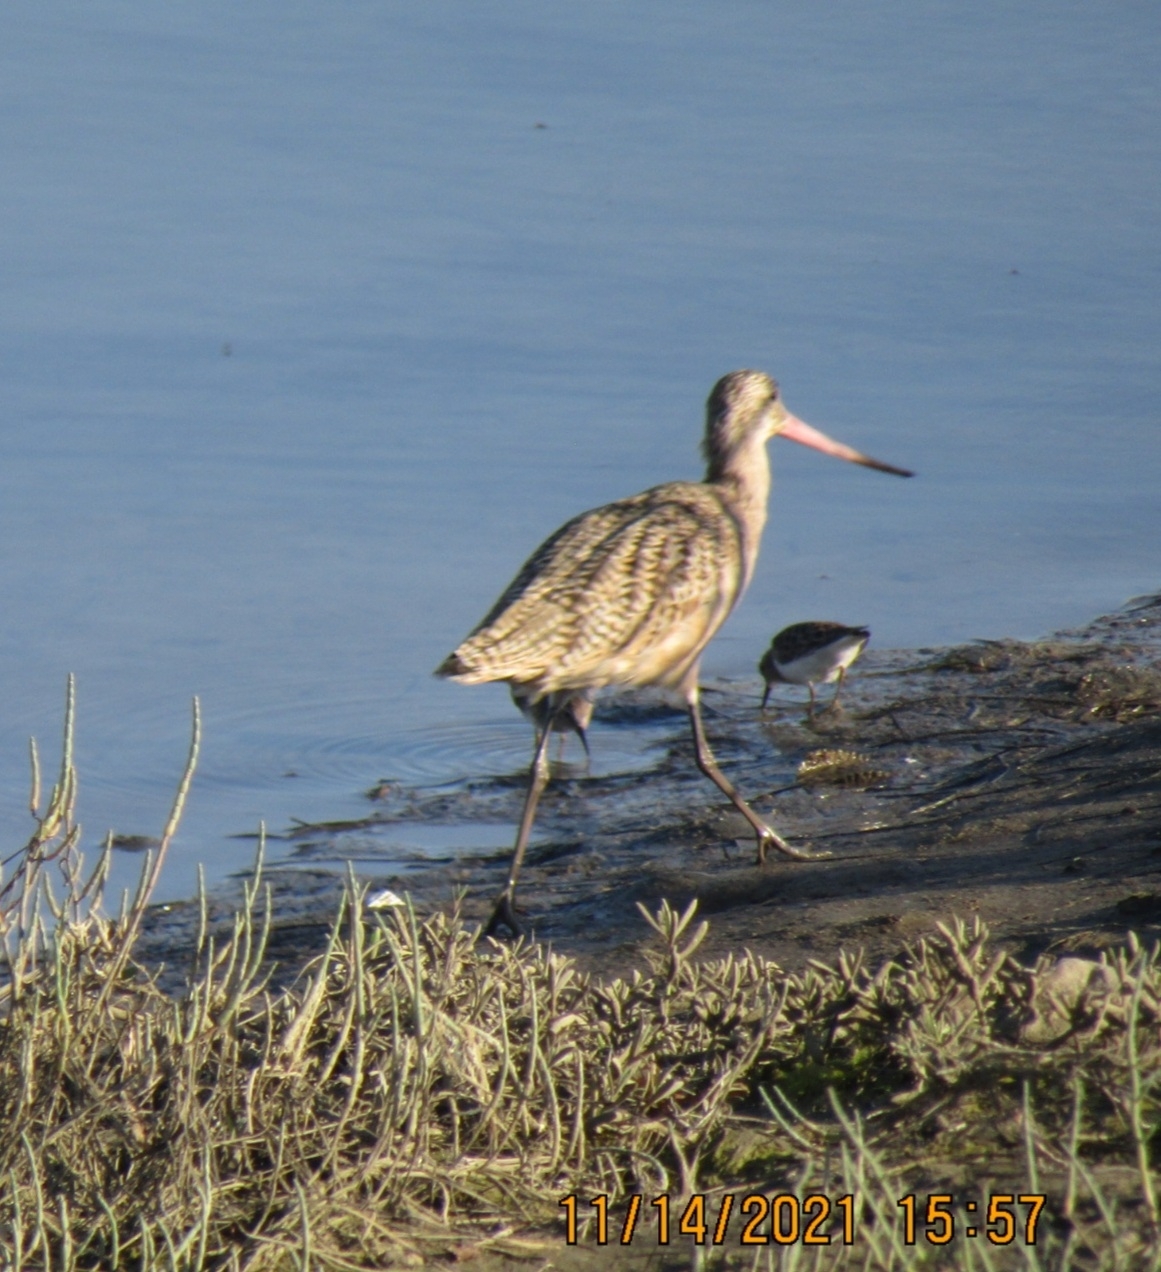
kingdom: Animalia
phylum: Chordata
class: Aves
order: Charadriiformes
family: Scolopacidae
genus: Limosa
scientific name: Limosa fedoa
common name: Marbled godwit
